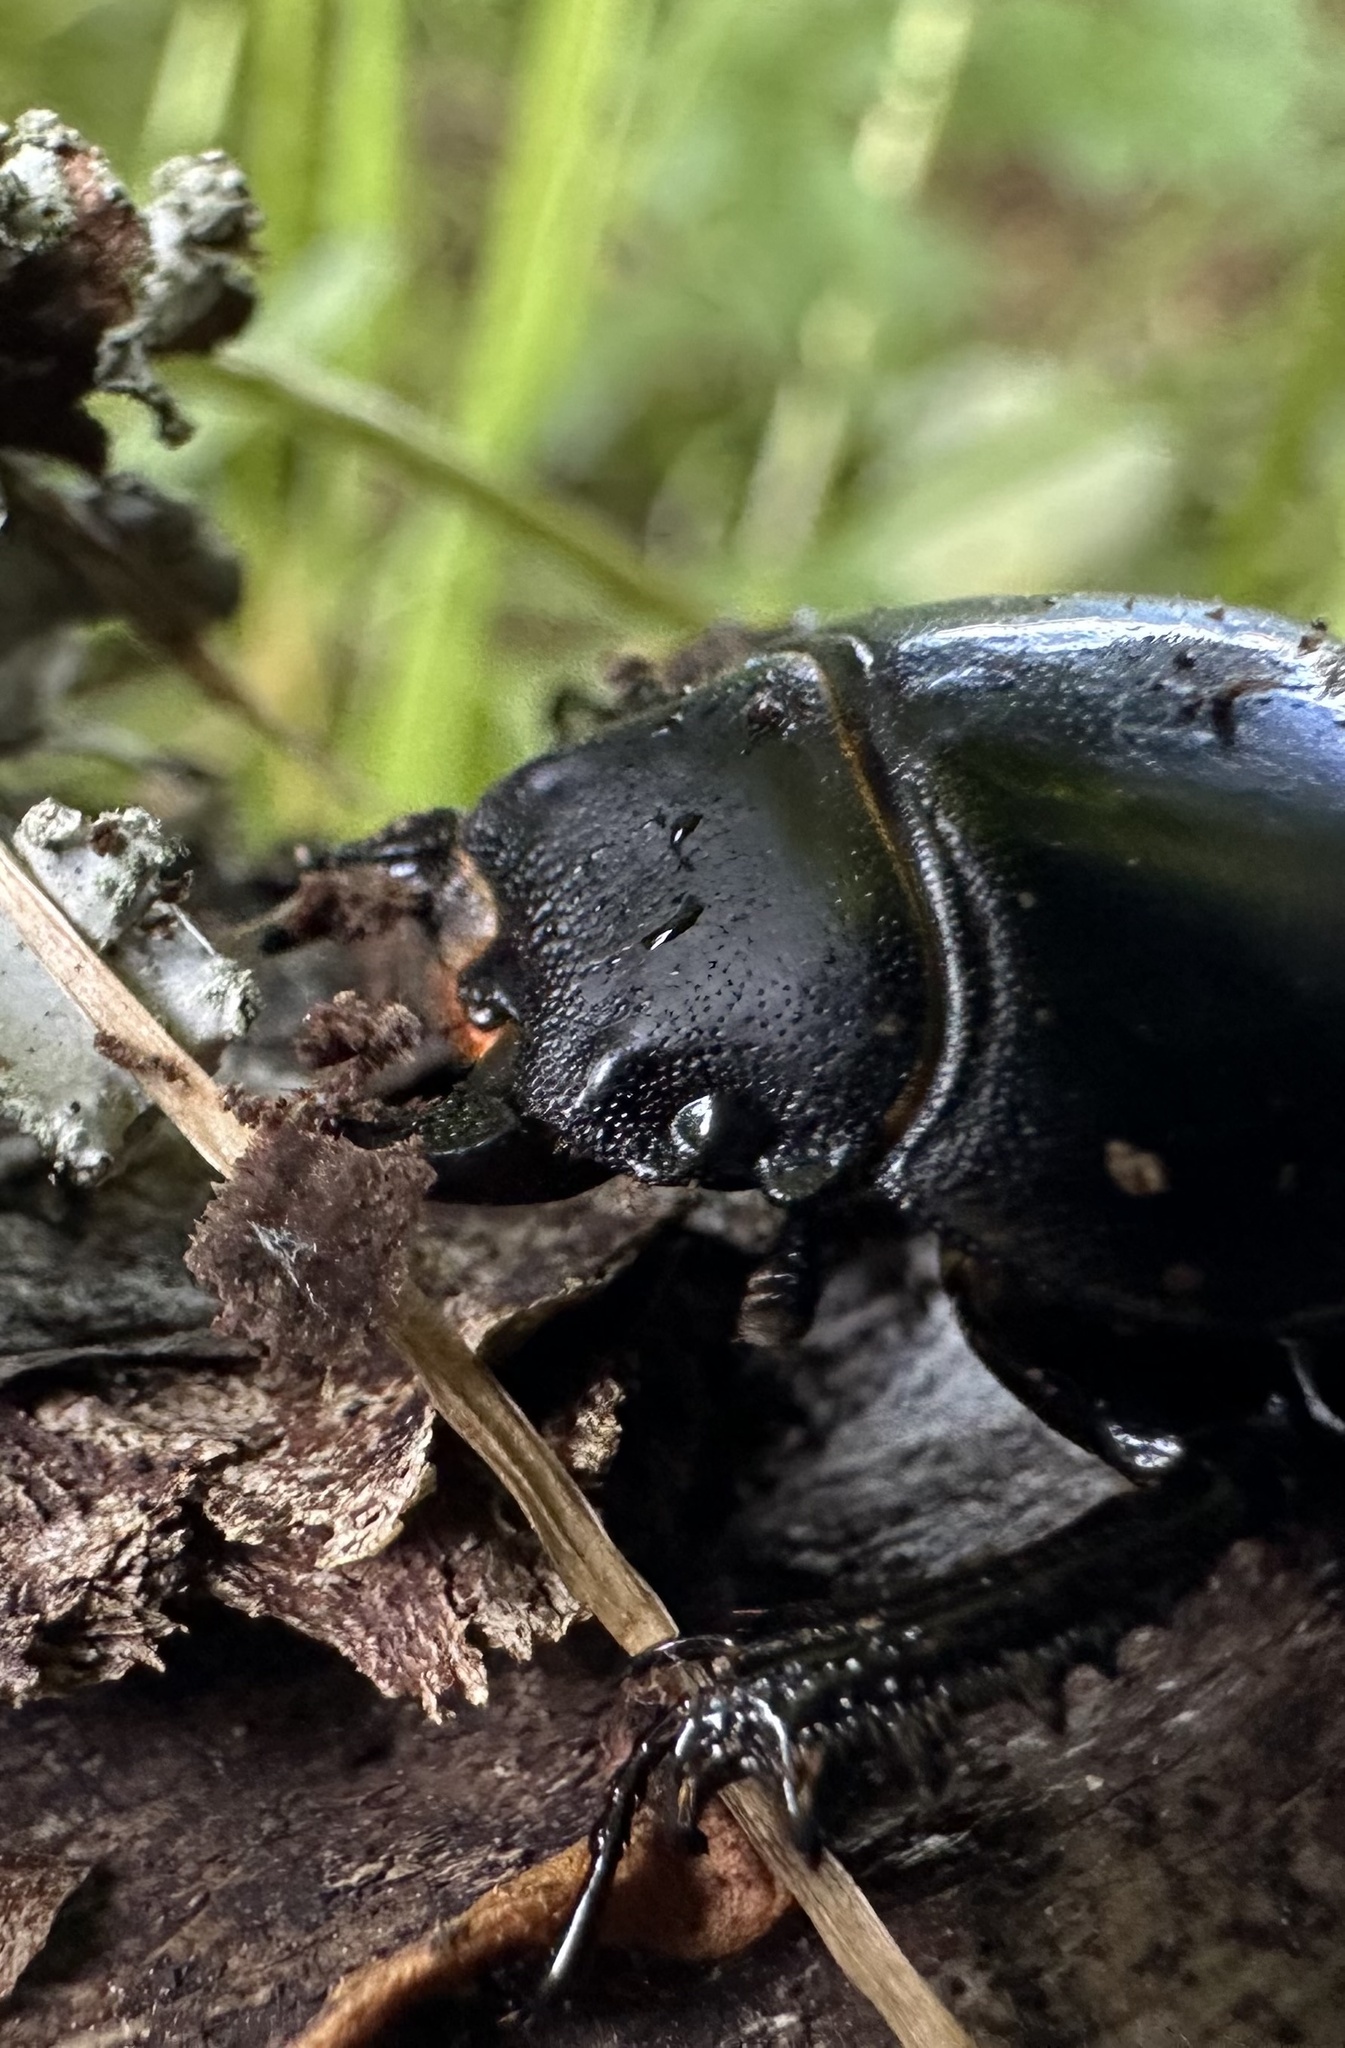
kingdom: Animalia
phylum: Arthropoda
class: Insecta
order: Coleoptera
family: Lucanidae
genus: Apterodorcus
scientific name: Apterodorcus bacchus
